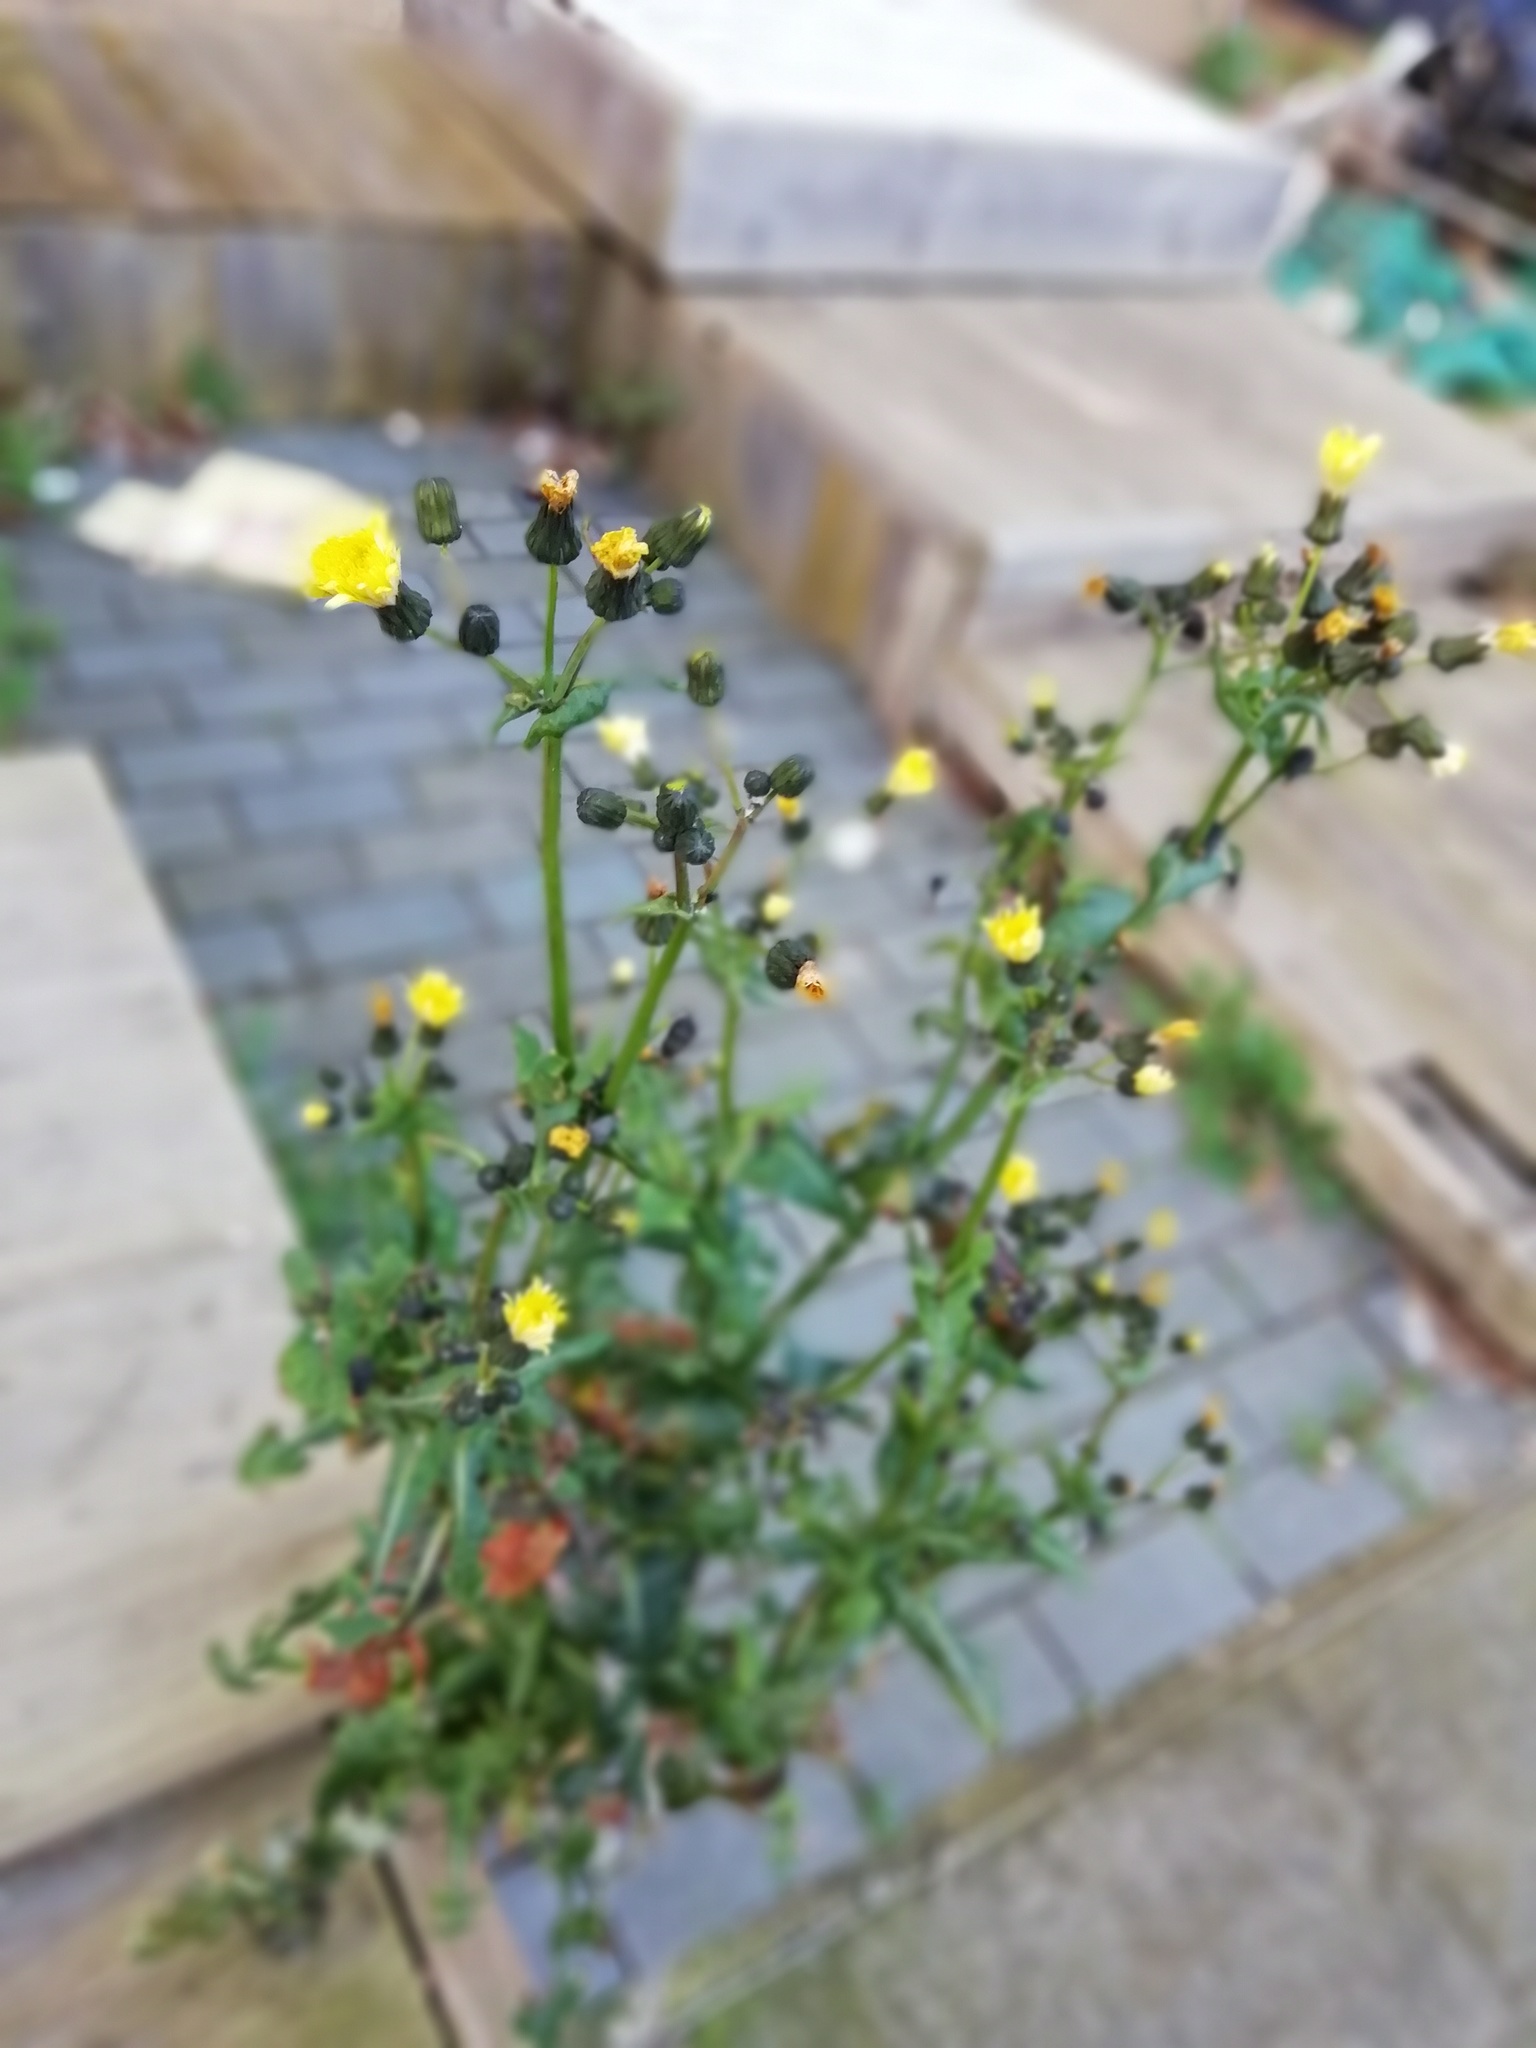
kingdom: Plantae
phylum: Tracheophyta
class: Magnoliopsida
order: Asterales
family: Asteraceae
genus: Sonchus
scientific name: Sonchus oleraceus
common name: Common sowthistle
